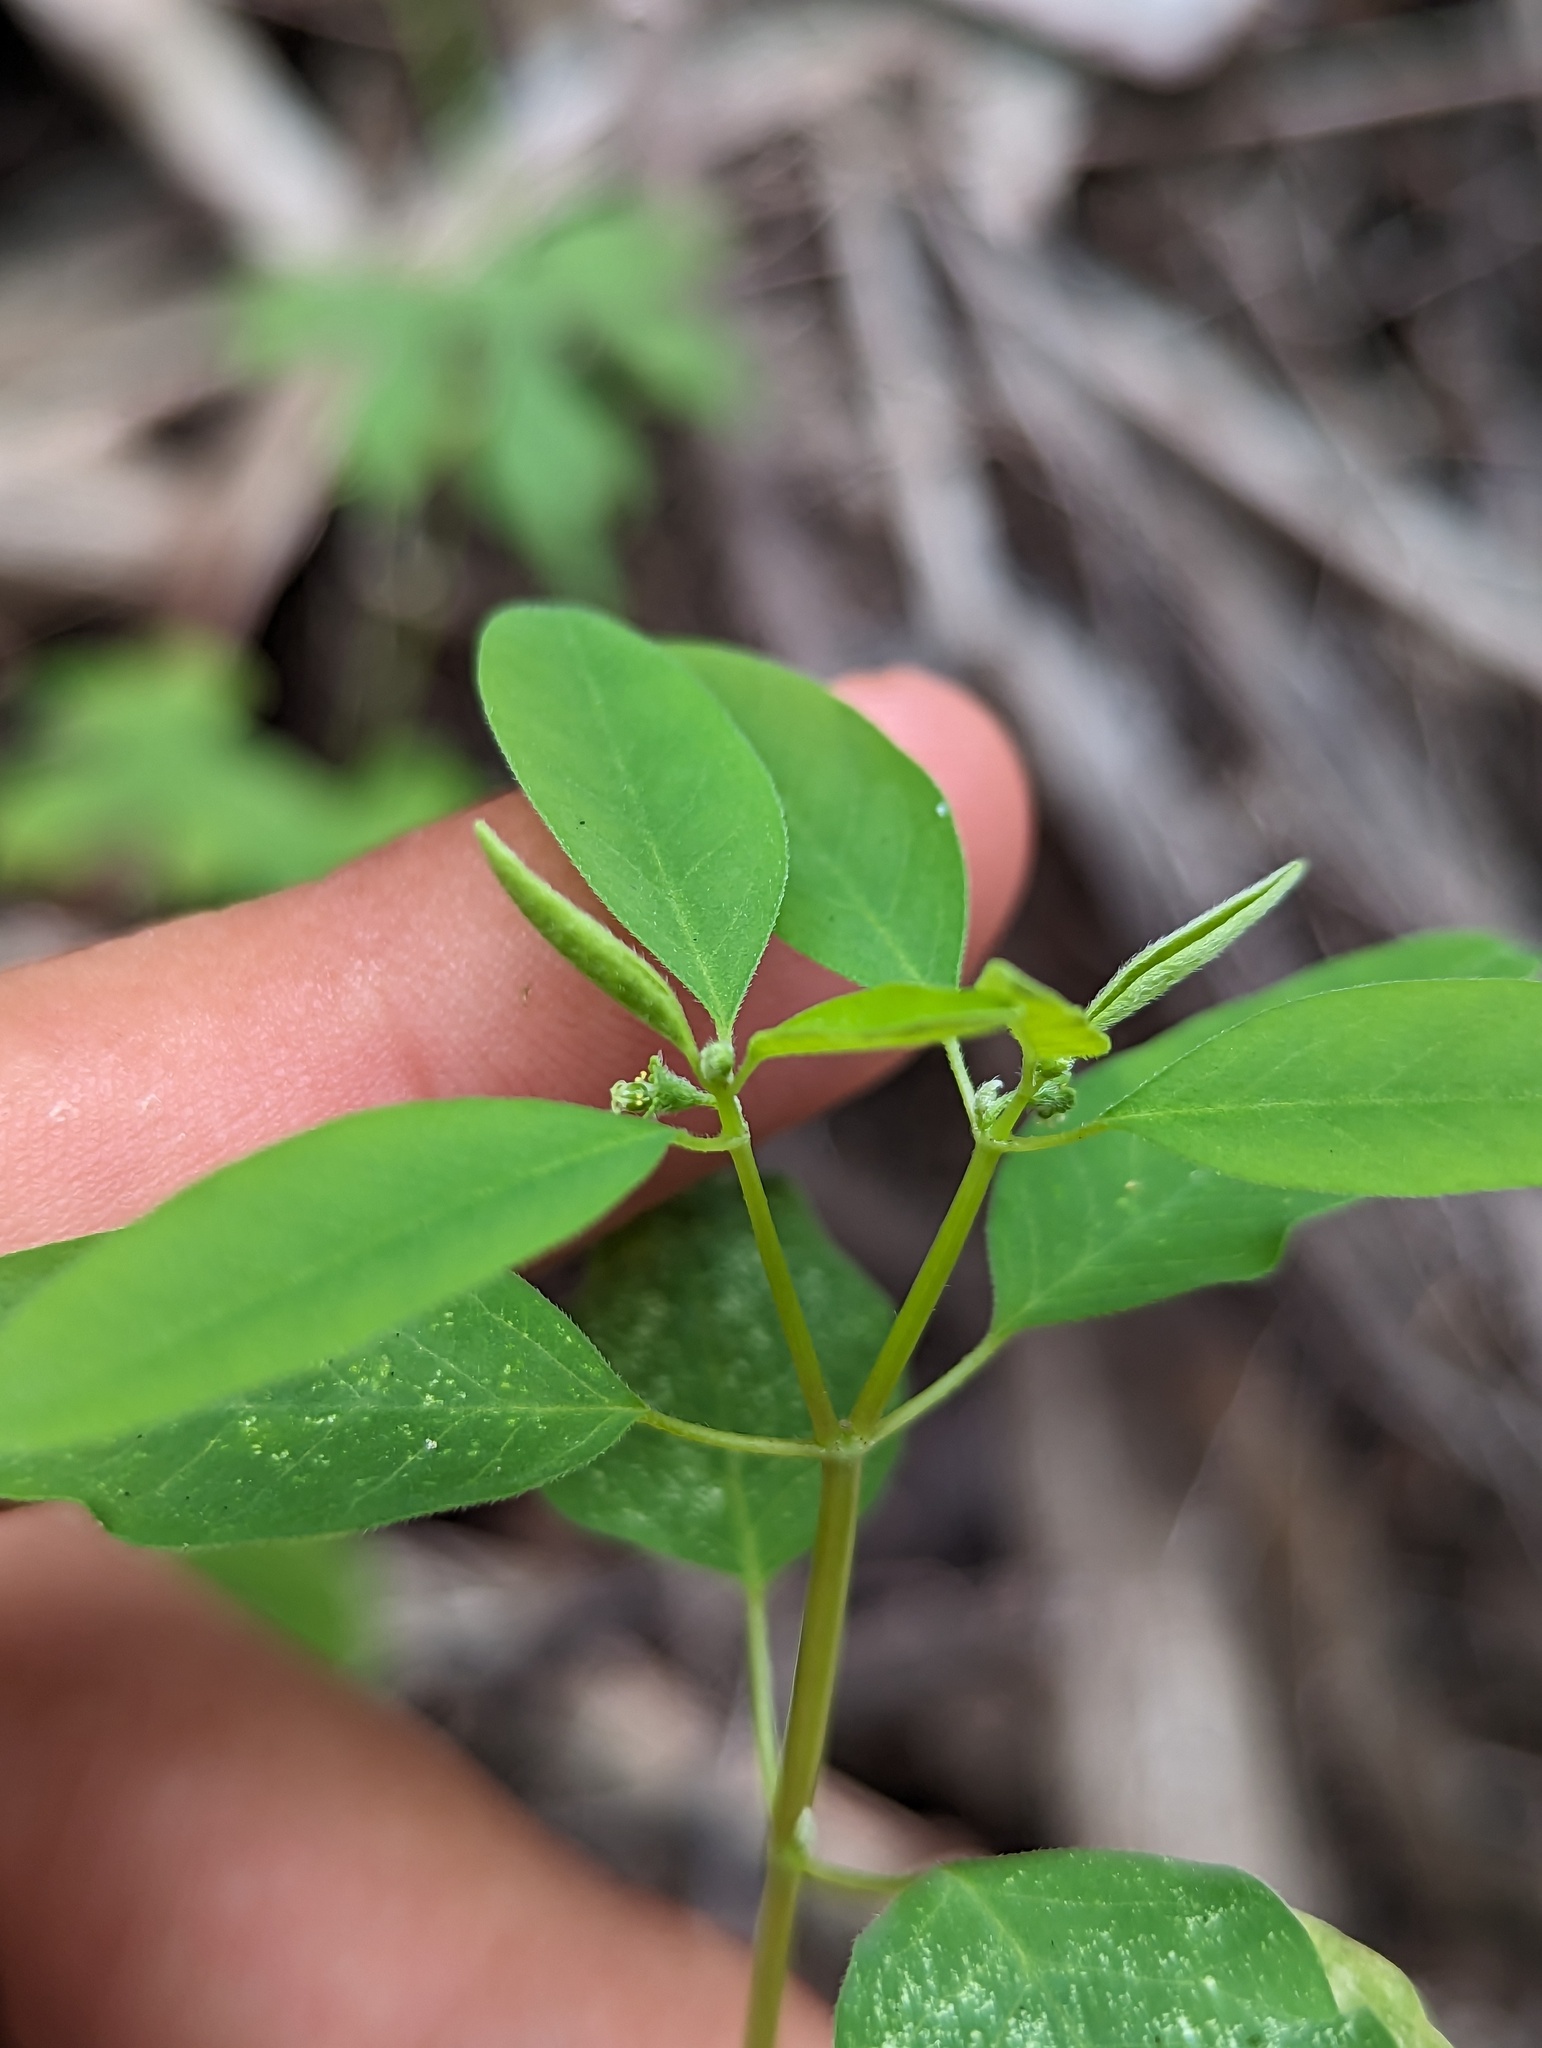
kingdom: Plantae
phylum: Tracheophyta
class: Magnoliopsida
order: Malpighiales
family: Euphorbiaceae
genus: Euphorbia
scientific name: Euphorbia lagunensis
